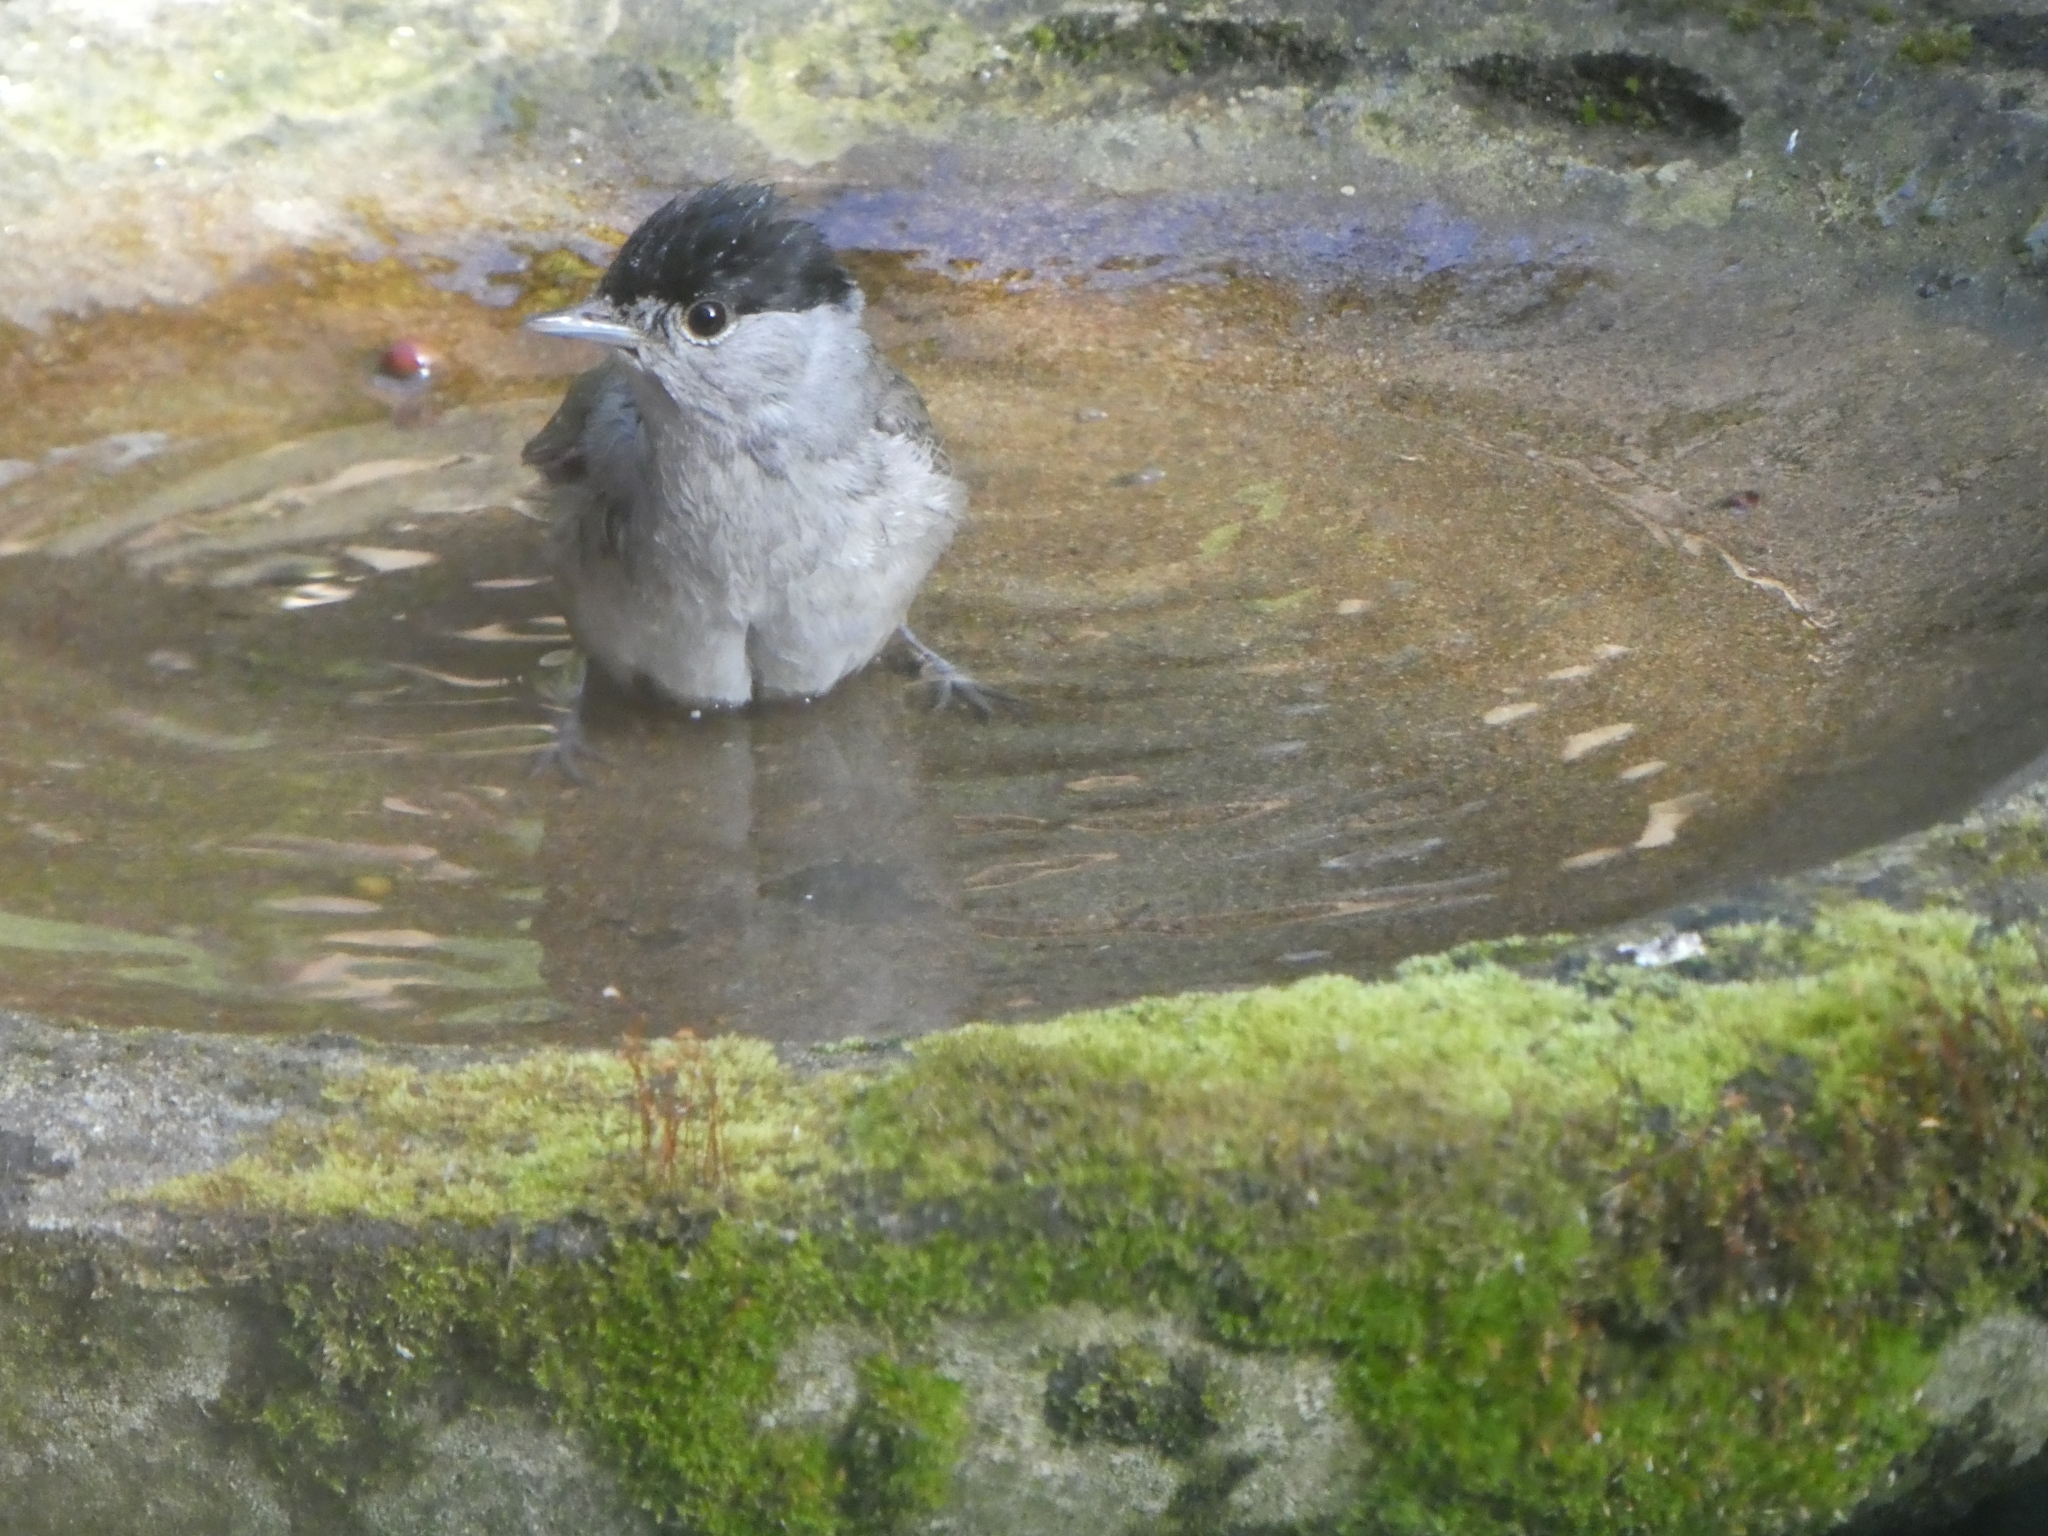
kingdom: Animalia
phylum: Chordata
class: Aves
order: Passeriformes
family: Sylviidae
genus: Sylvia
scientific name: Sylvia atricapilla
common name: Eurasian blackcap
